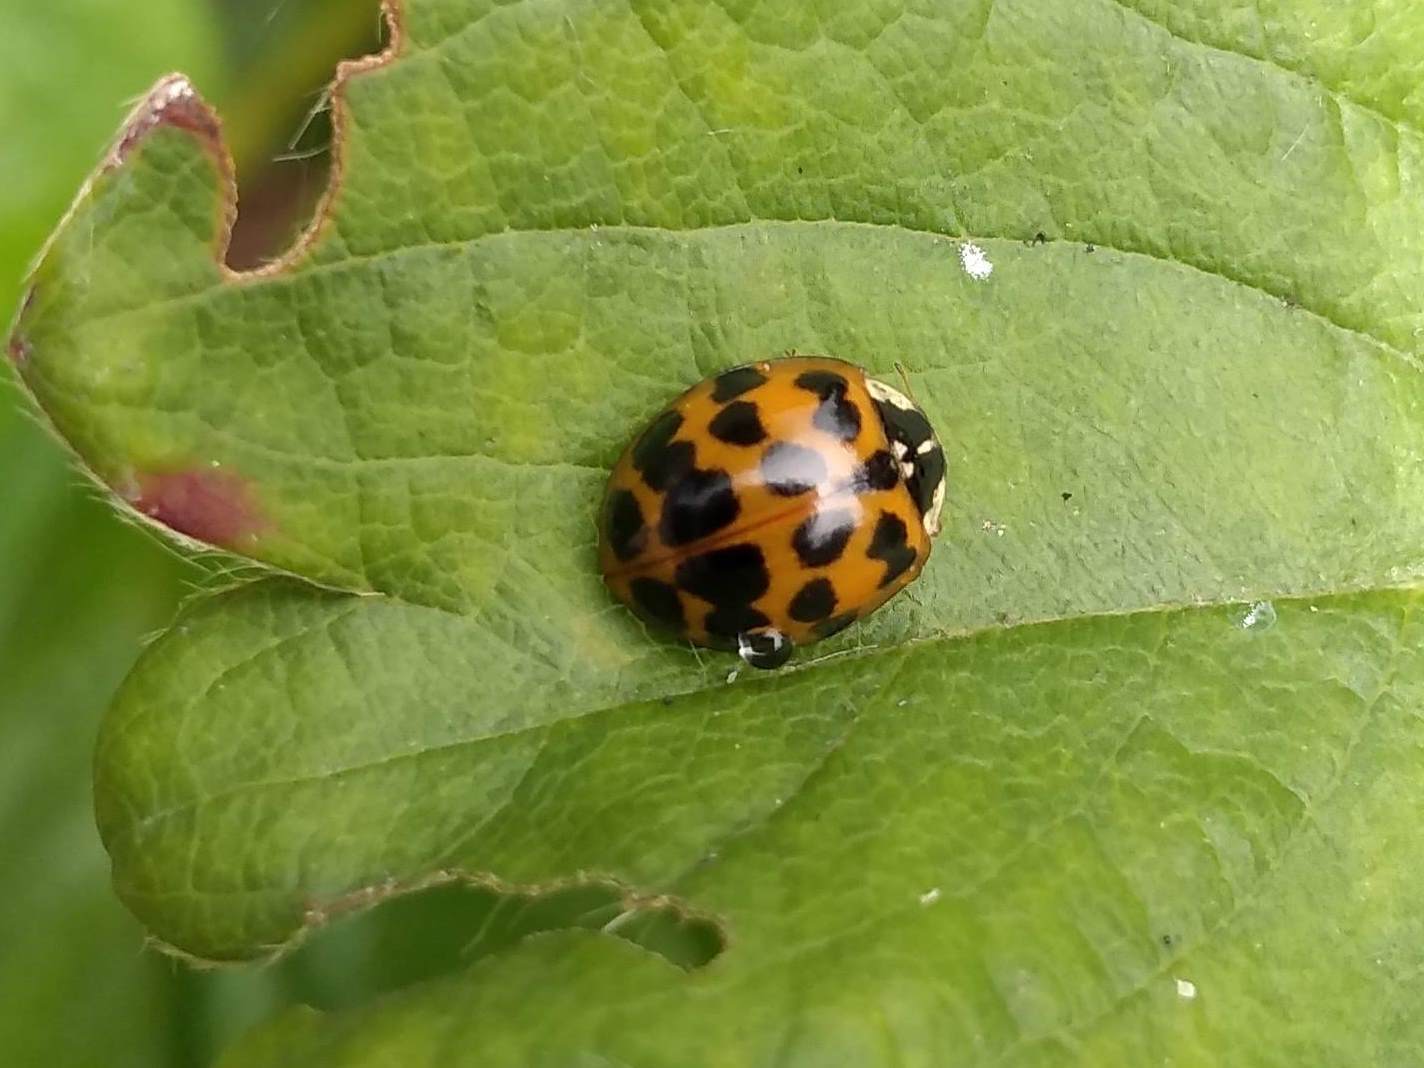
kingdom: Animalia
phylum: Arthropoda
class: Insecta
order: Coleoptera
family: Coccinellidae
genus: Harmonia
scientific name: Harmonia axyridis
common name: Harlequin ladybird
